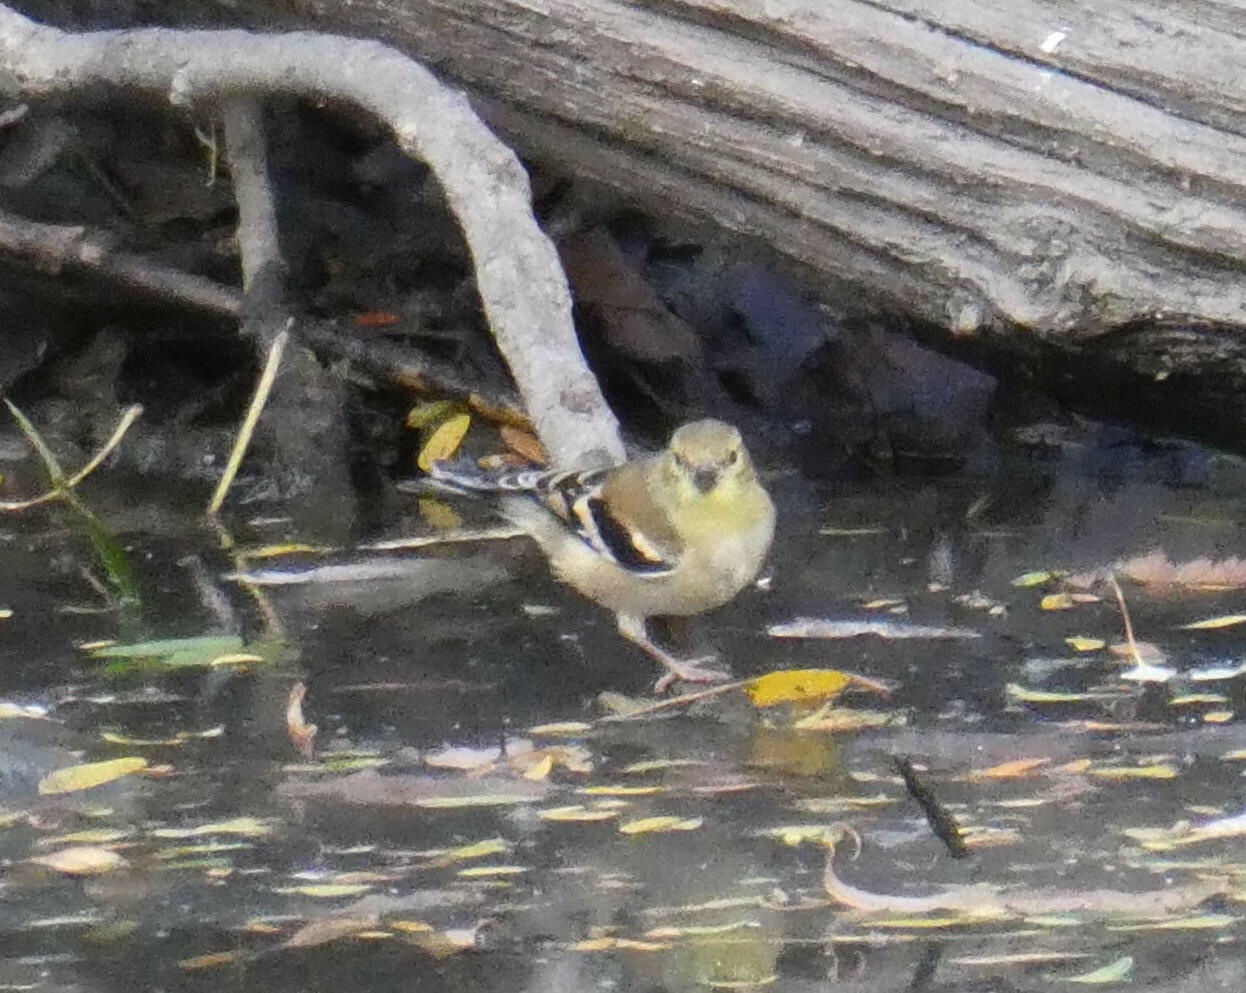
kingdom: Animalia
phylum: Chordata
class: Aves
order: Passeriformes
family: Fringillidae
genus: Spinus
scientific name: Spinus tristis
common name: American goldfinch
